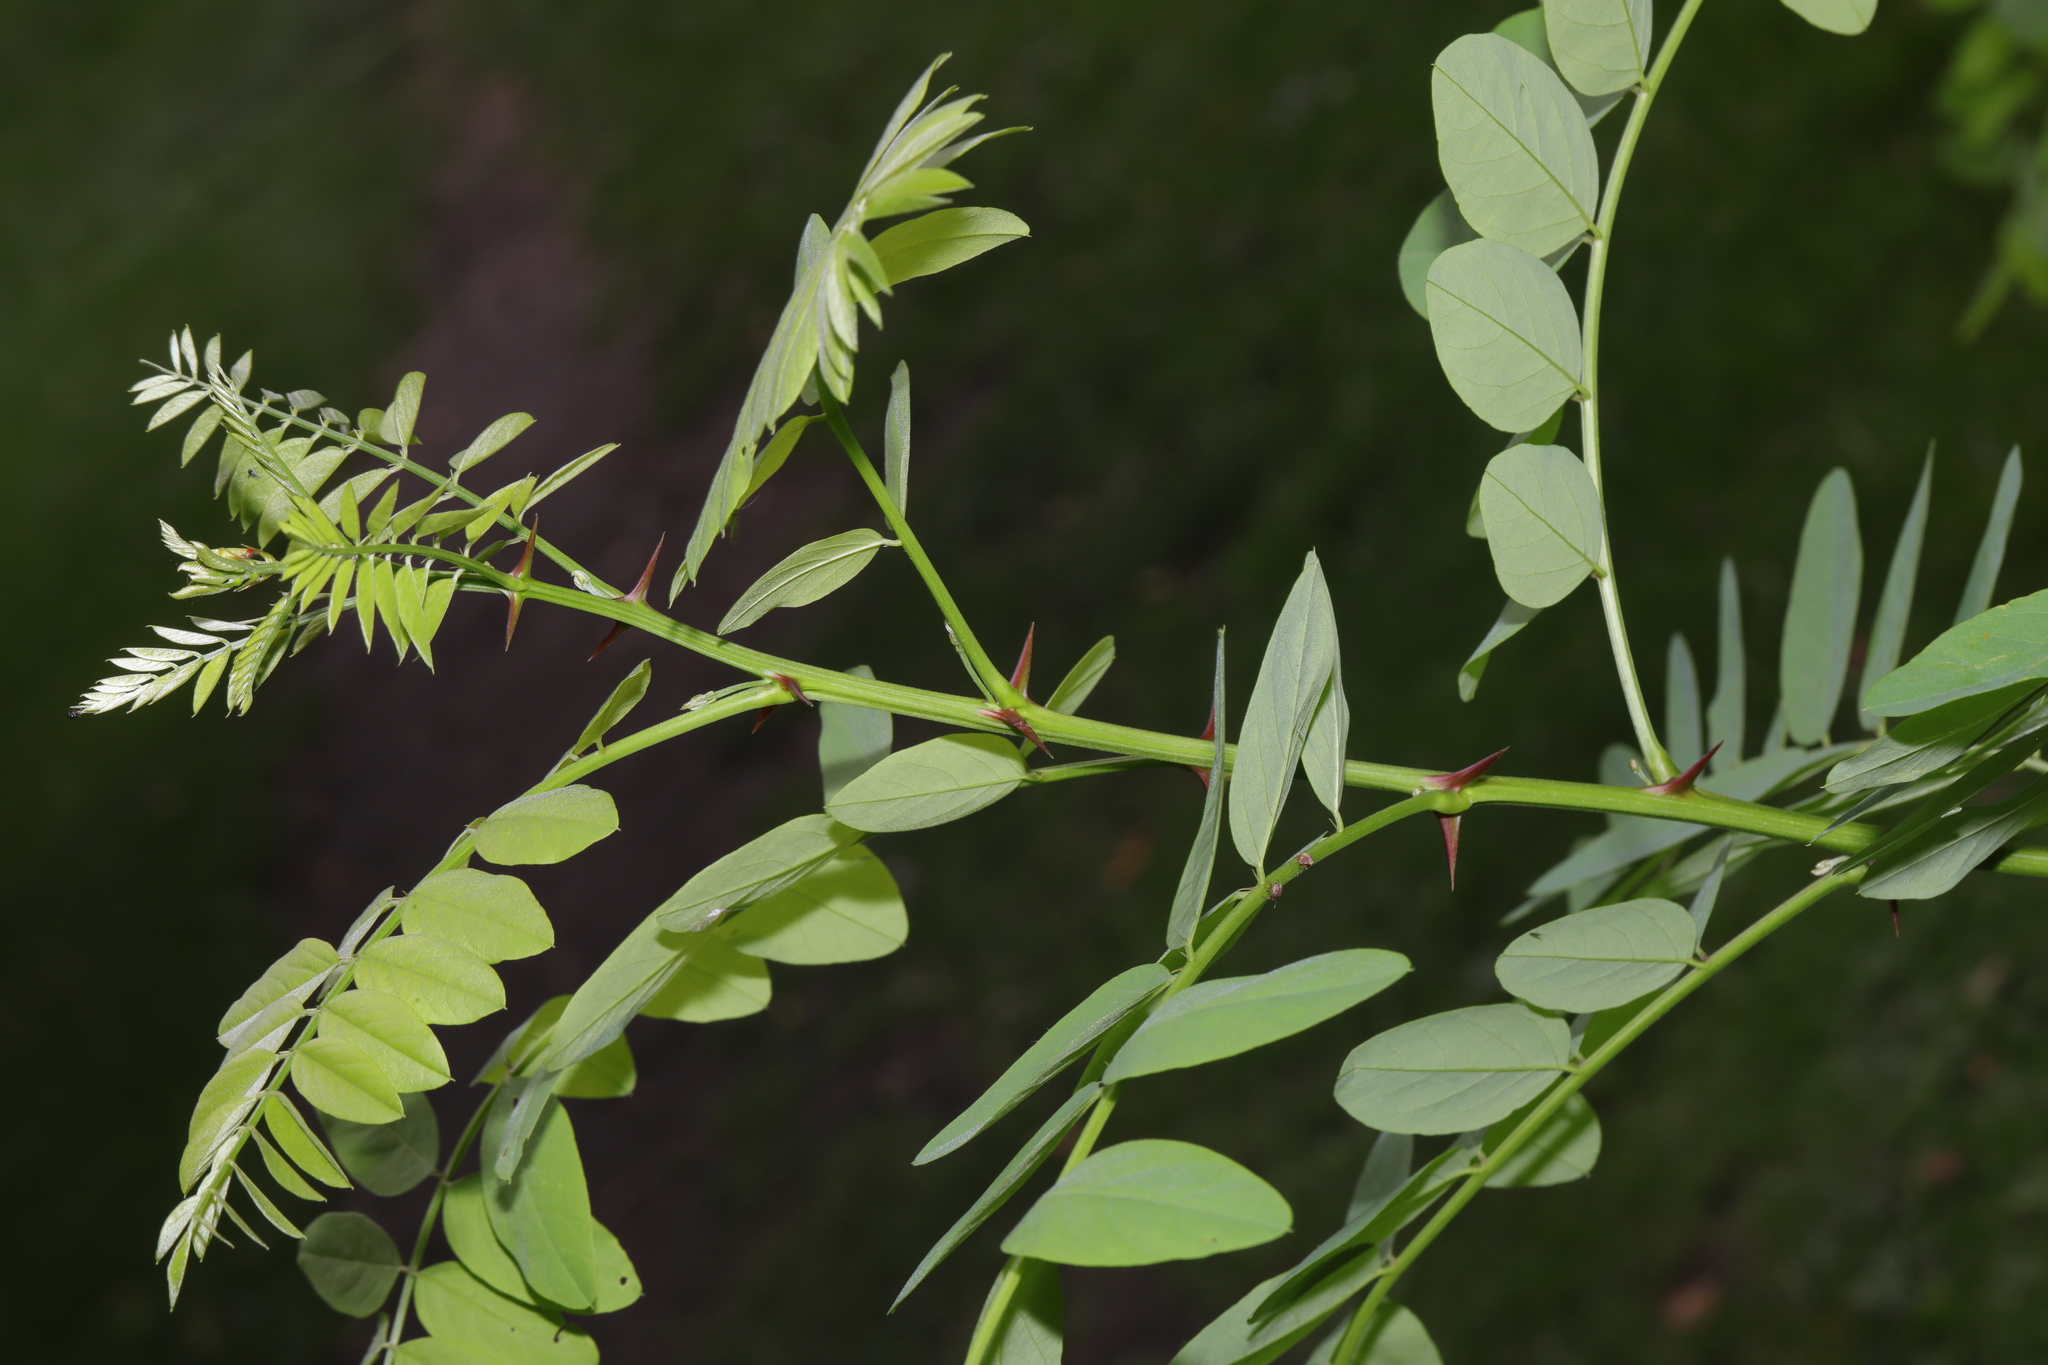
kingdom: Plantae
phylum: Tracheophyta
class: Magnoliopsida
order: Fabales
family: Fabaceae
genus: Robinia
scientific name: Robinia pseudoacacia
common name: Black locust
